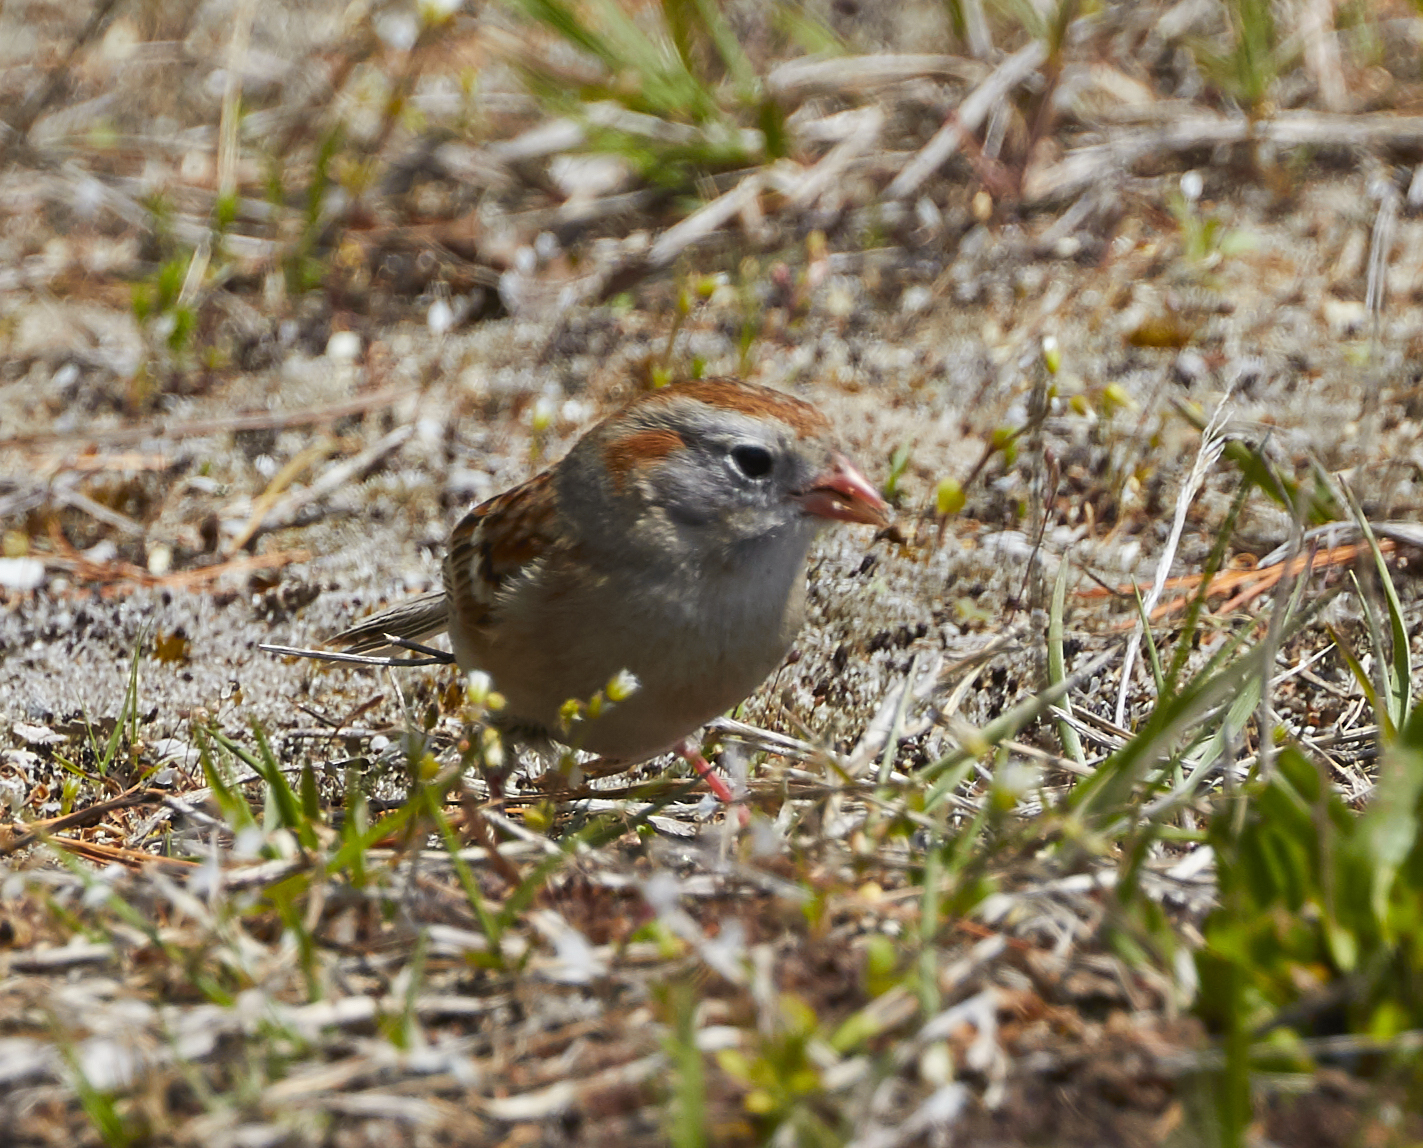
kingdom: Animalia
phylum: Chordata
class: Aves
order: Passeriformes
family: Passerellidae
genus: Spizella
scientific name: Spizella pusilla
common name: Field sparrow
